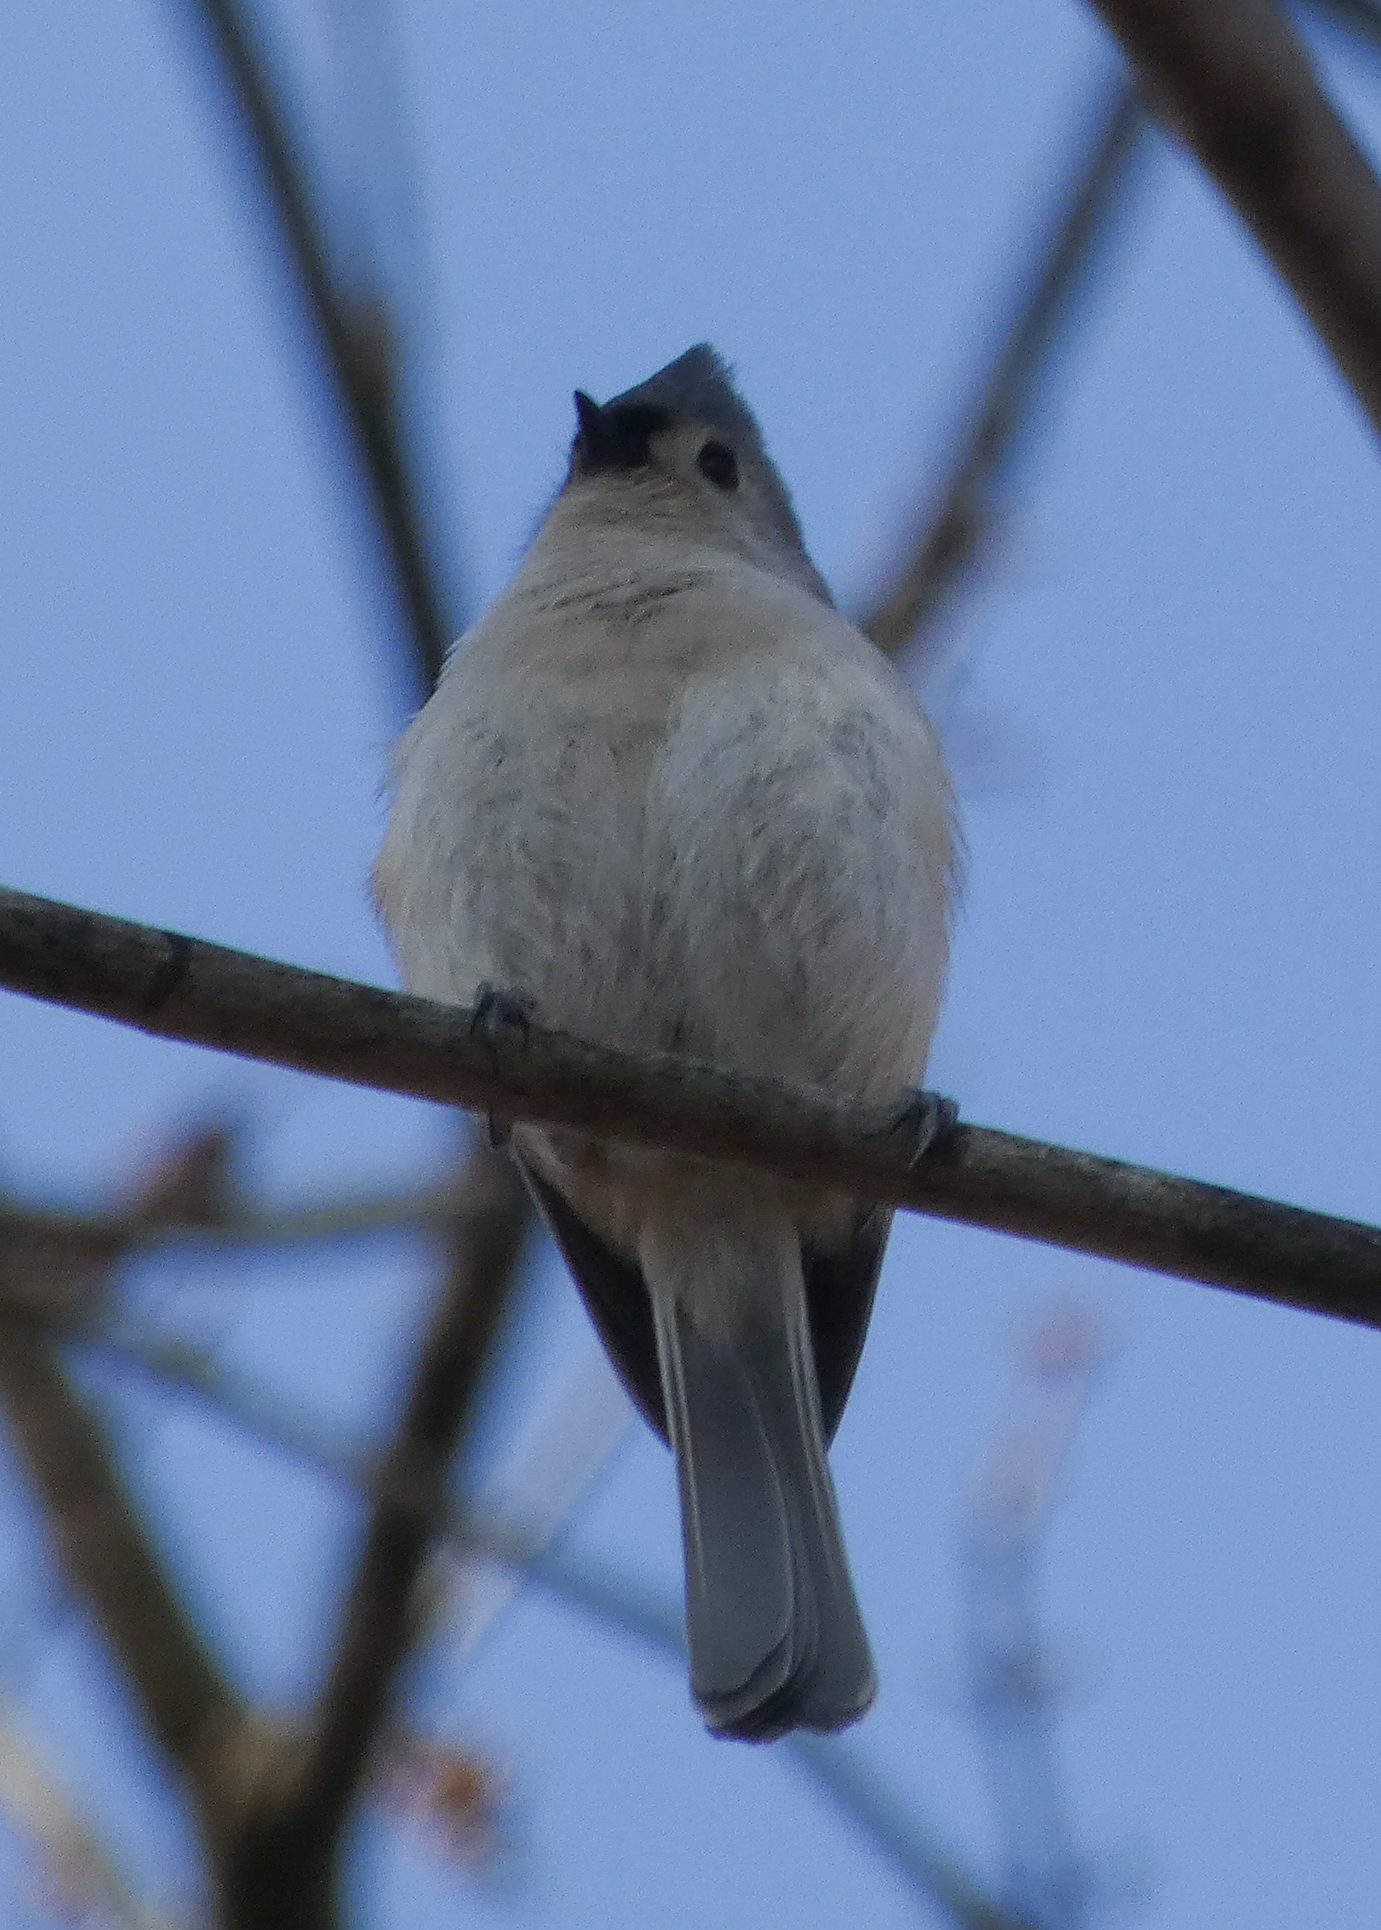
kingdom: Animalia
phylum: Chordata
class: Aves
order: Passeriformes
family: Paridae
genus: Baeolophus
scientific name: Baeolophus bicolor
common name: Tufted titmouse
